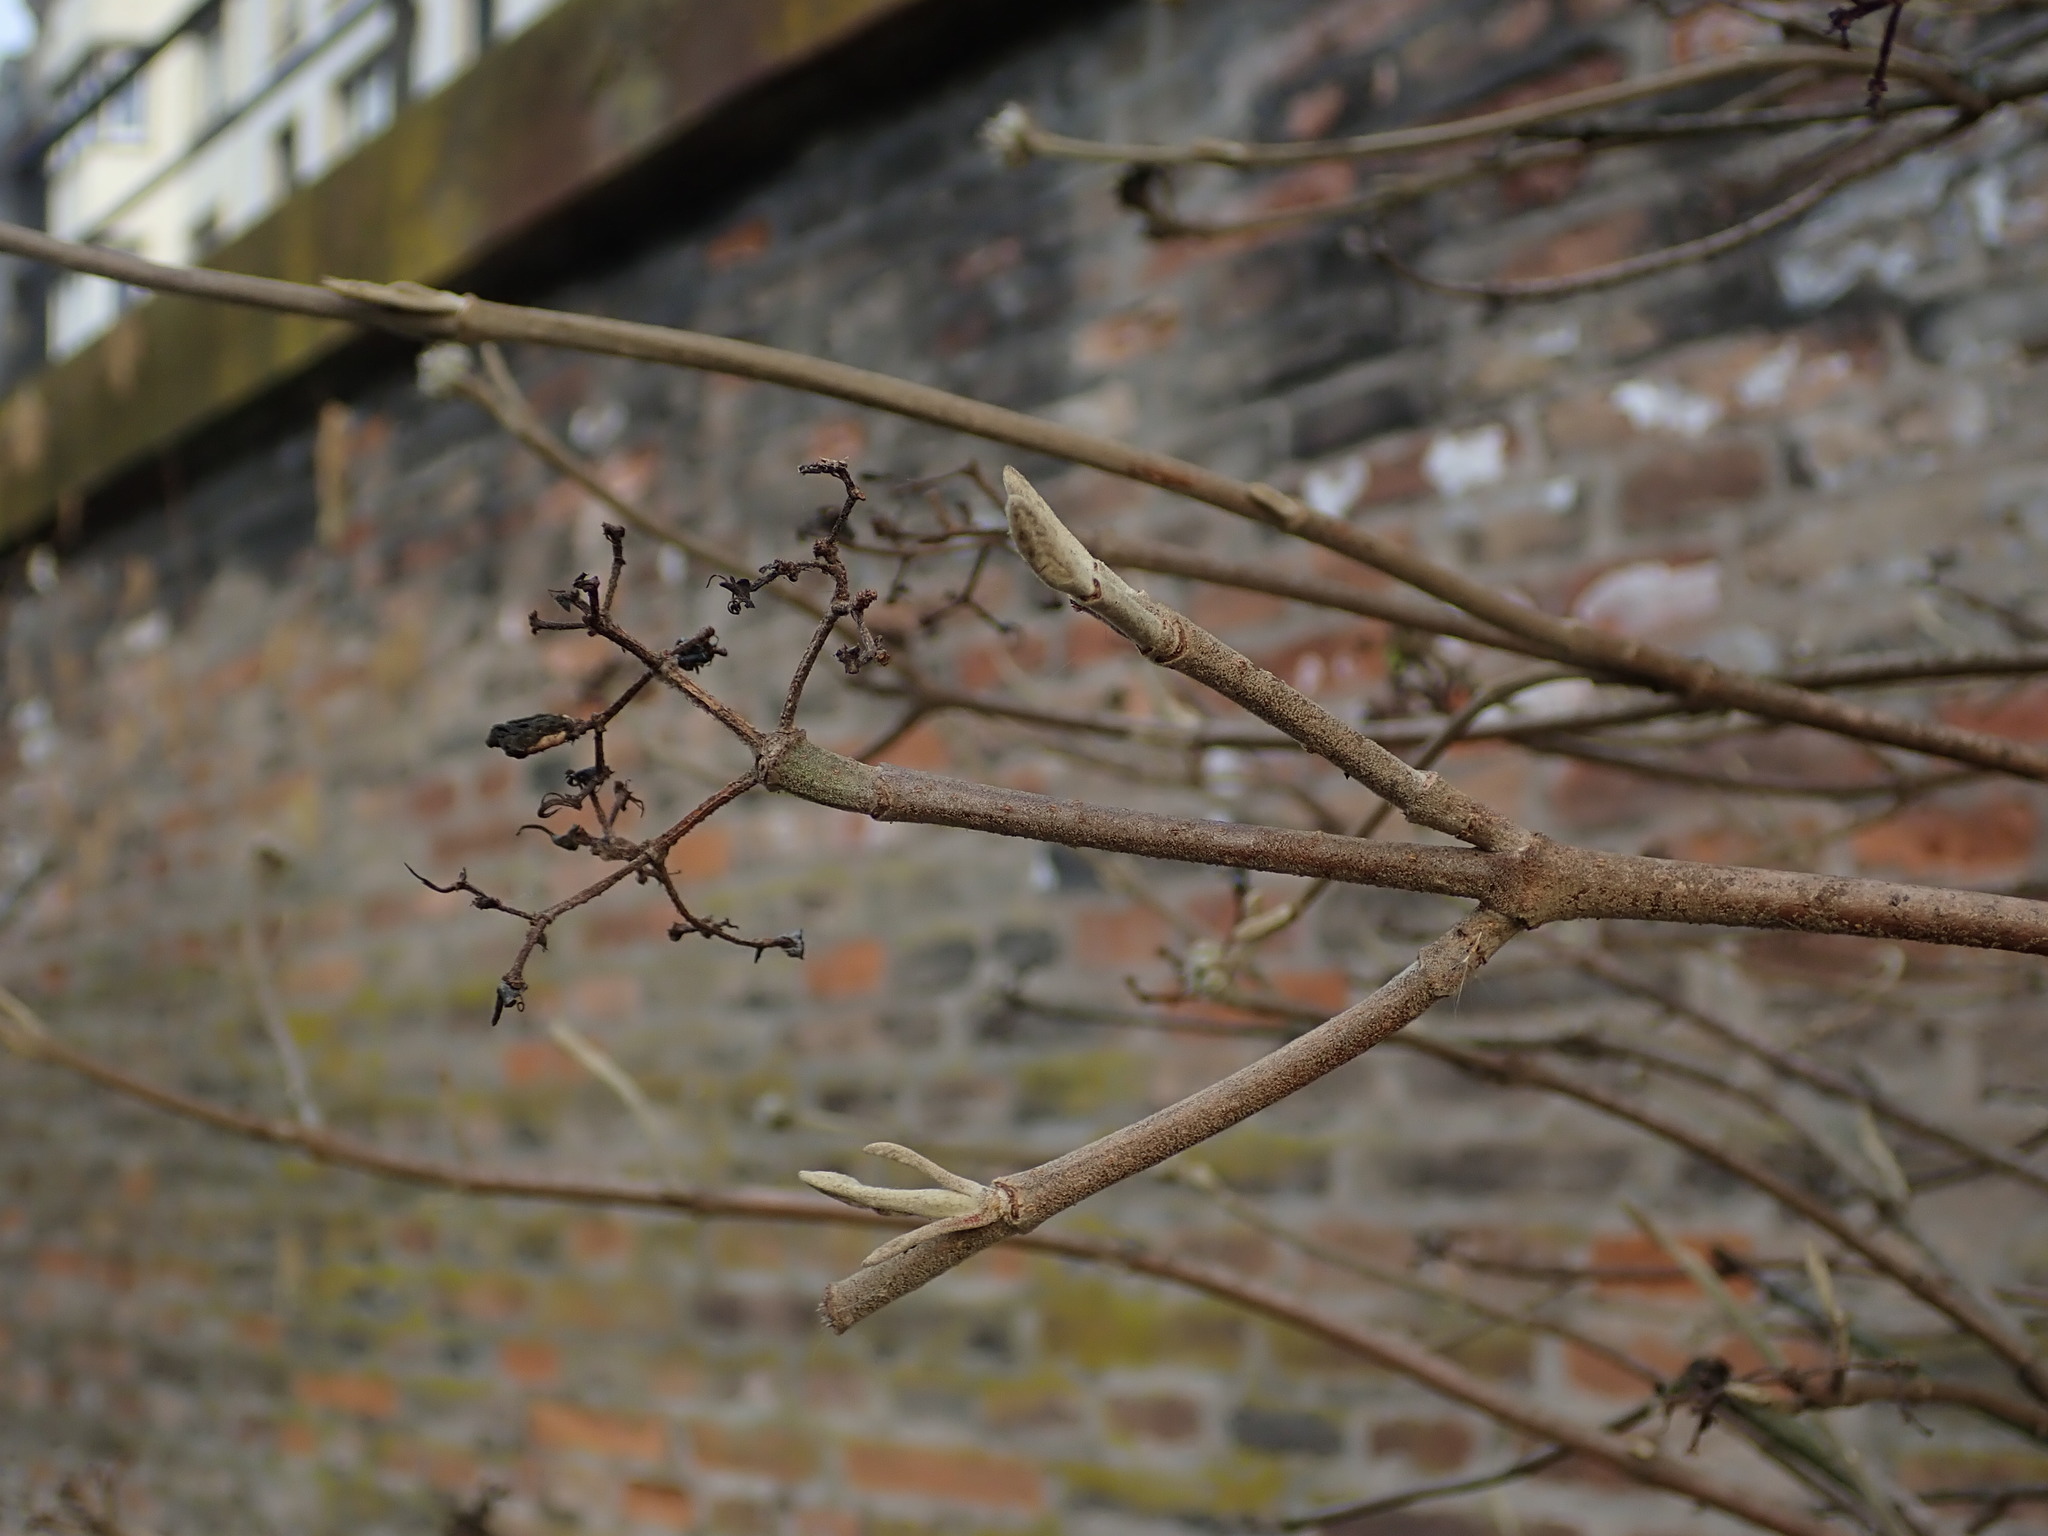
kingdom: Plantae
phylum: Tracheophyta
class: Magnoliopsida
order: Dipsacales
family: Viburnaceae
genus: Viburnum
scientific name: Viburnum lantana
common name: Wayfaring tree
